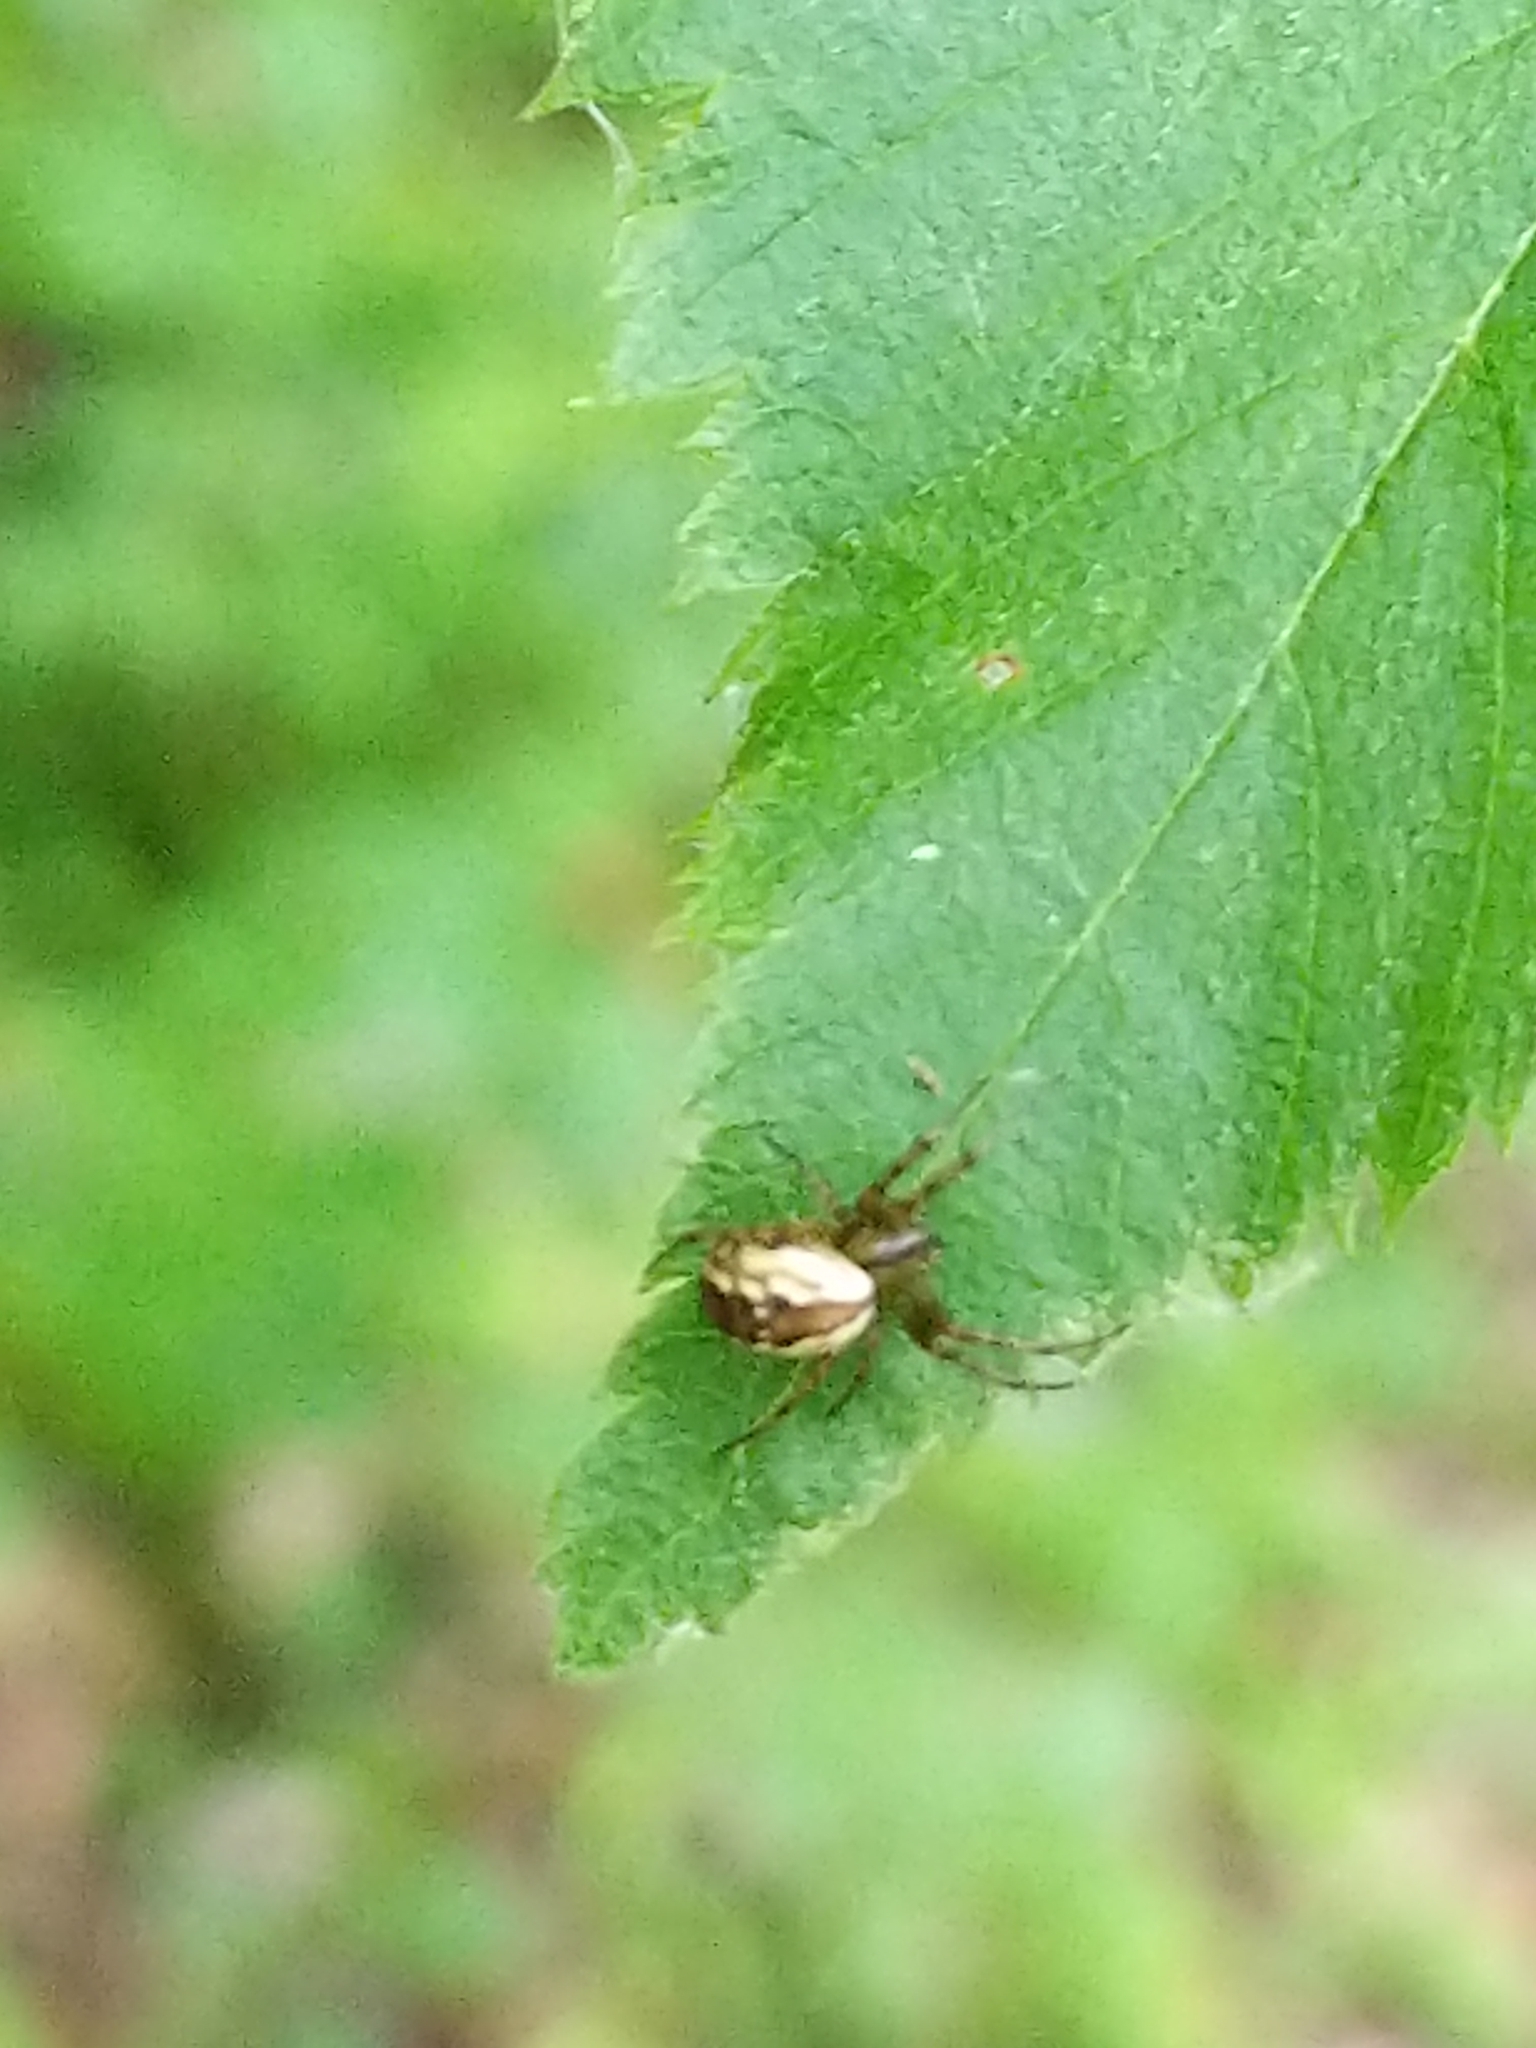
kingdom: Animalia
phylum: Arthropoda
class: Arachnida
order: Araneae
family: Araneidae
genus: Mangora
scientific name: Mangora placida
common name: Tuft-legged orbweaver
